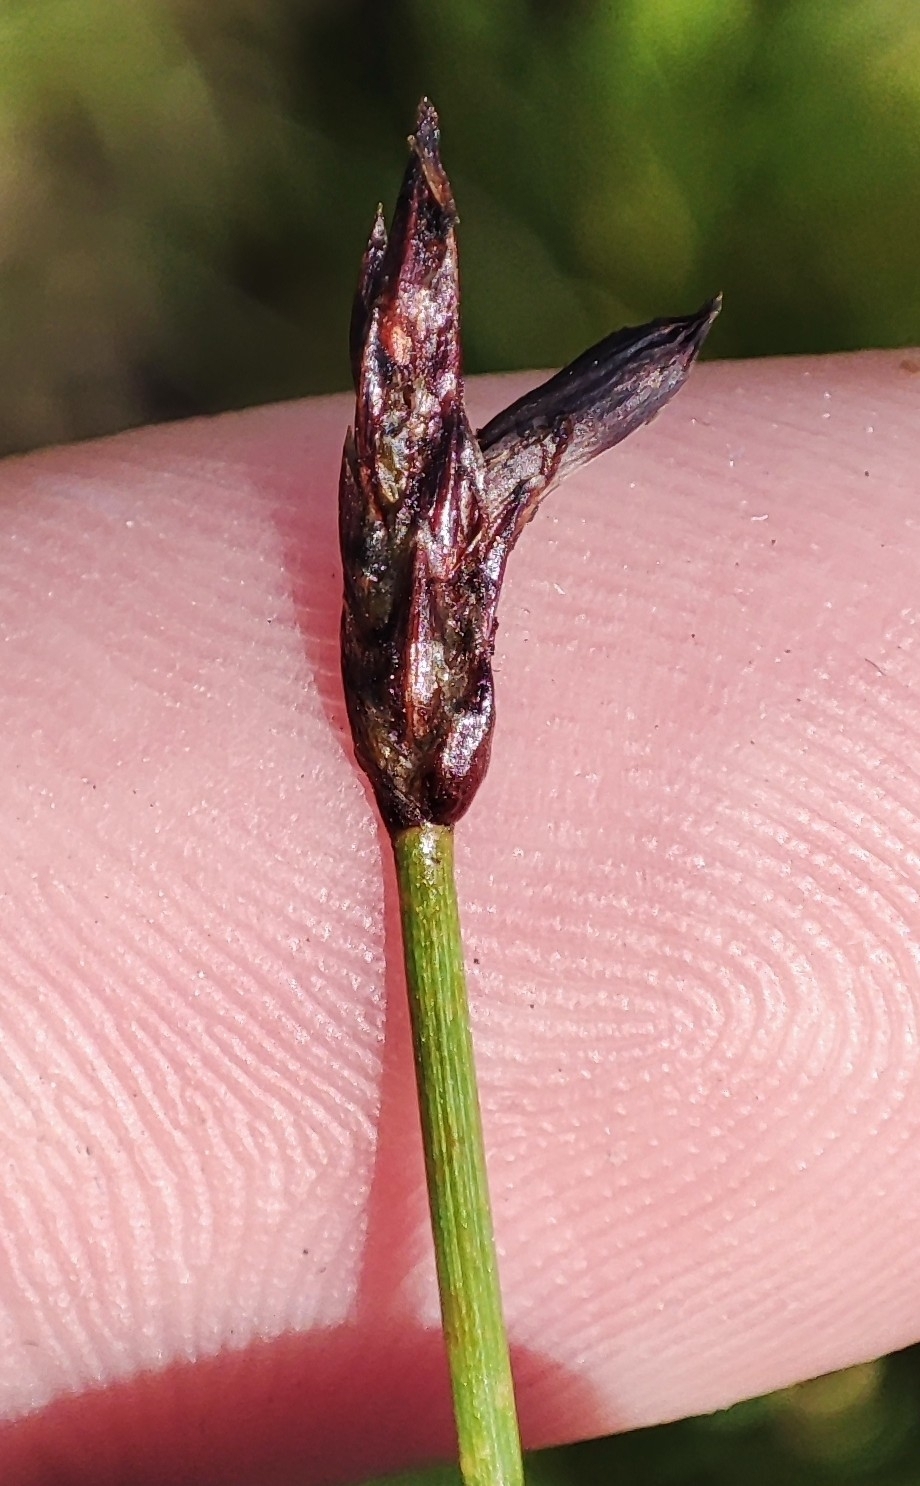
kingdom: Plantae
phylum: Tracheophyta
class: Liliopsida
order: Poales
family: Cyperaceae
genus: Eleocharis
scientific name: Eleocharis palustris
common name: Common spike-rush
